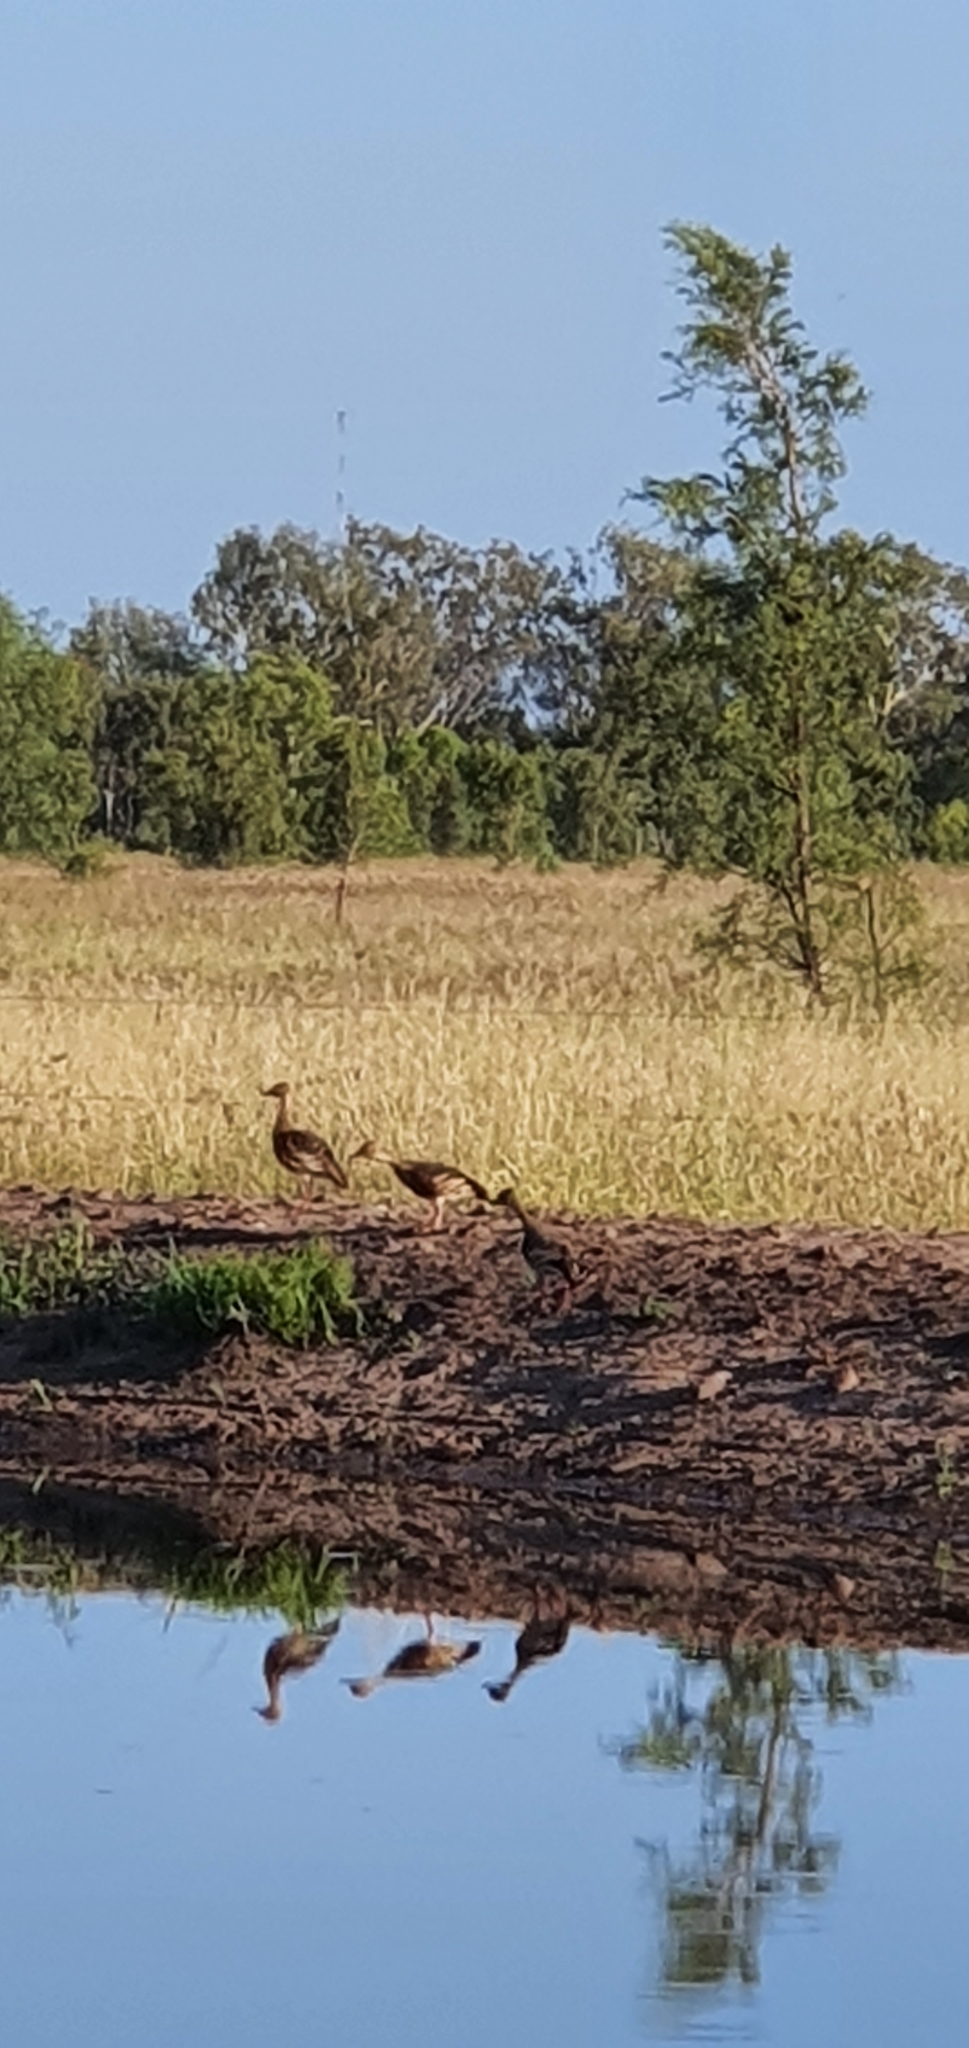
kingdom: Animalia
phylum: Chordata
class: Aves
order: Anseriformes
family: Anatidae
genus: Dendrocygna
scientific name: Dendrocygna eytoni
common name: Plumed whistling-duck
